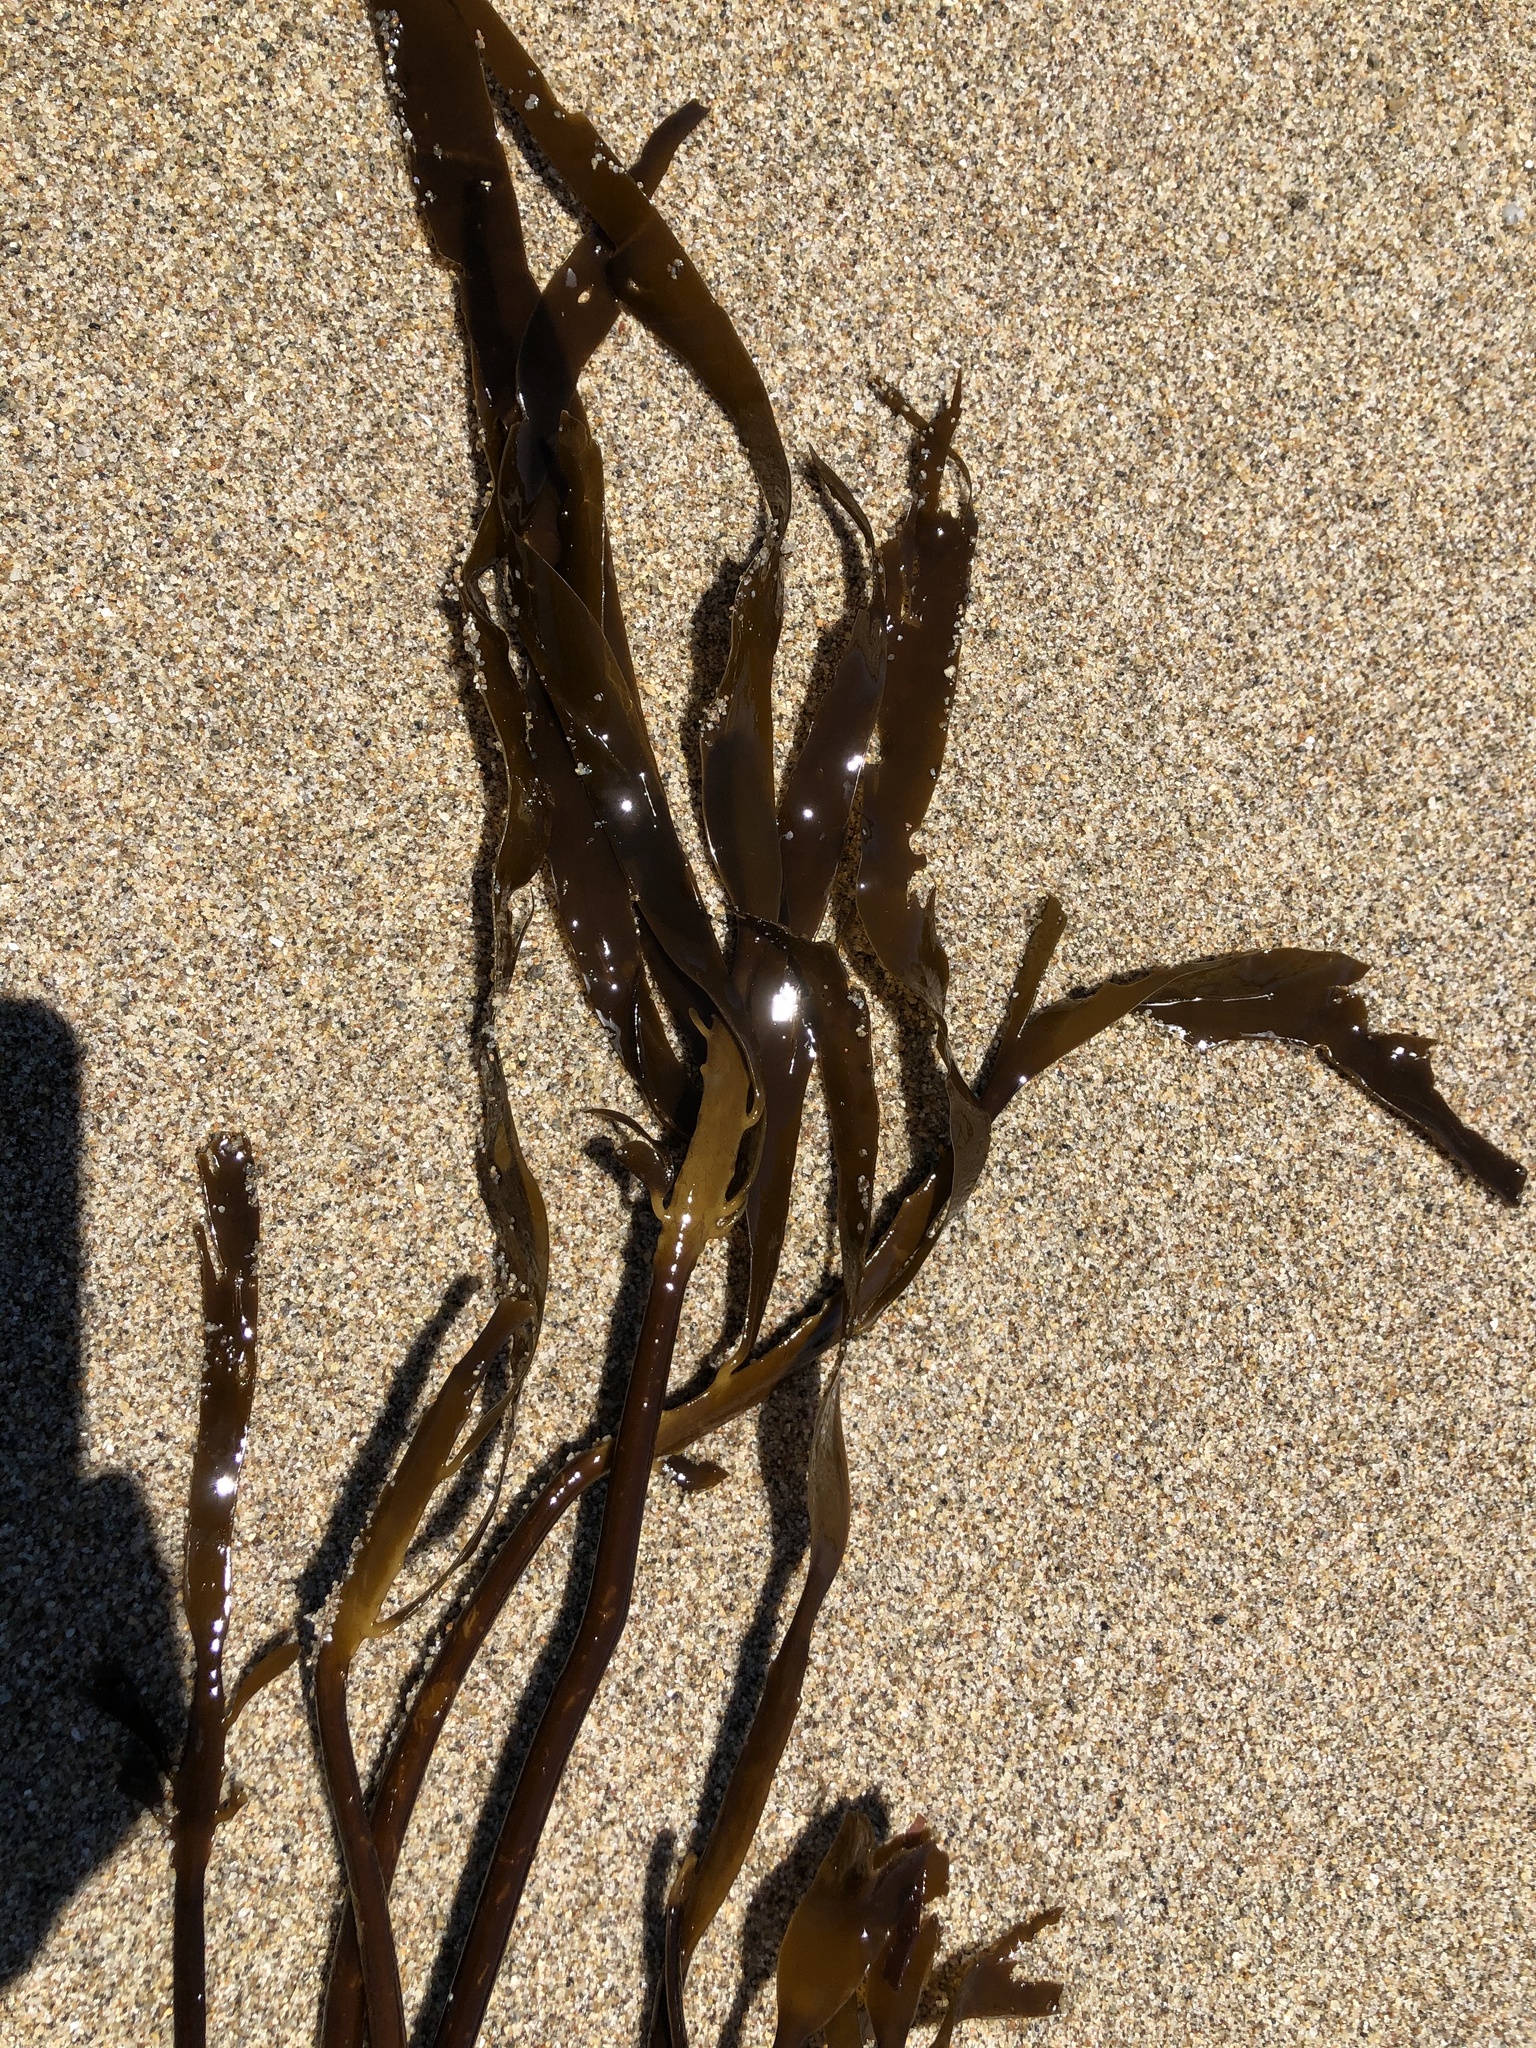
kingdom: Chromista
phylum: Ochrophyta
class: Phaeophyceae
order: Laminariales
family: Alariaceae
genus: Pterygophora
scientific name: Pterygophora californica
